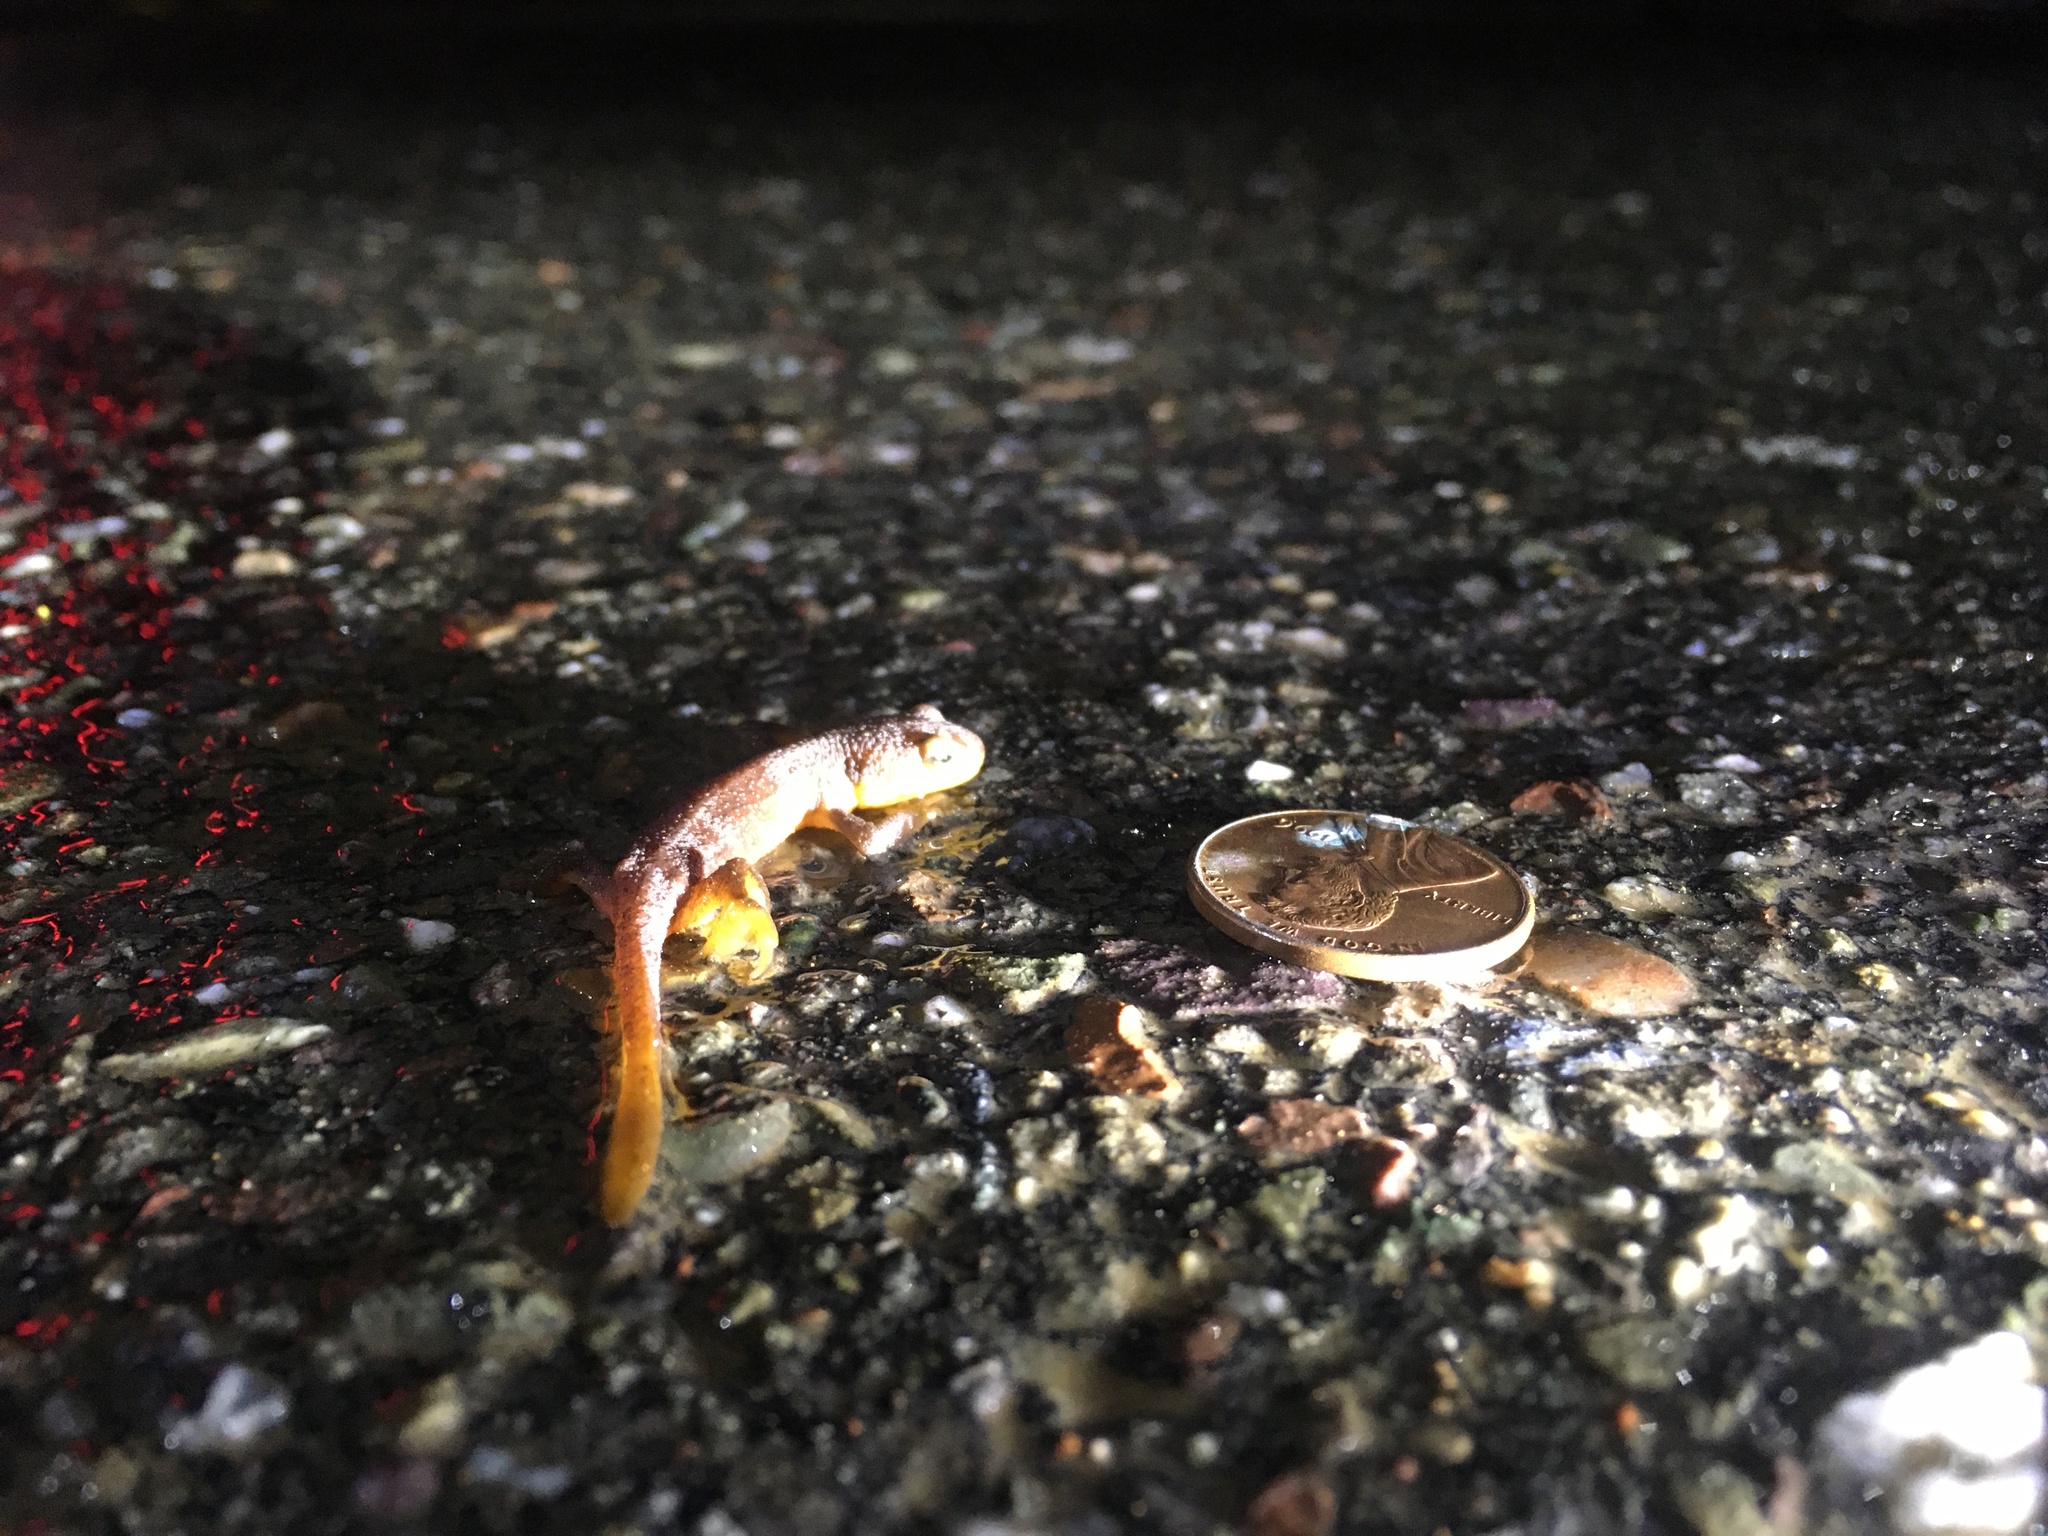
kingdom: Animalia
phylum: Chordata
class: Amphibia
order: Caudata
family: Salamandridae
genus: Taricha
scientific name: Taricha
